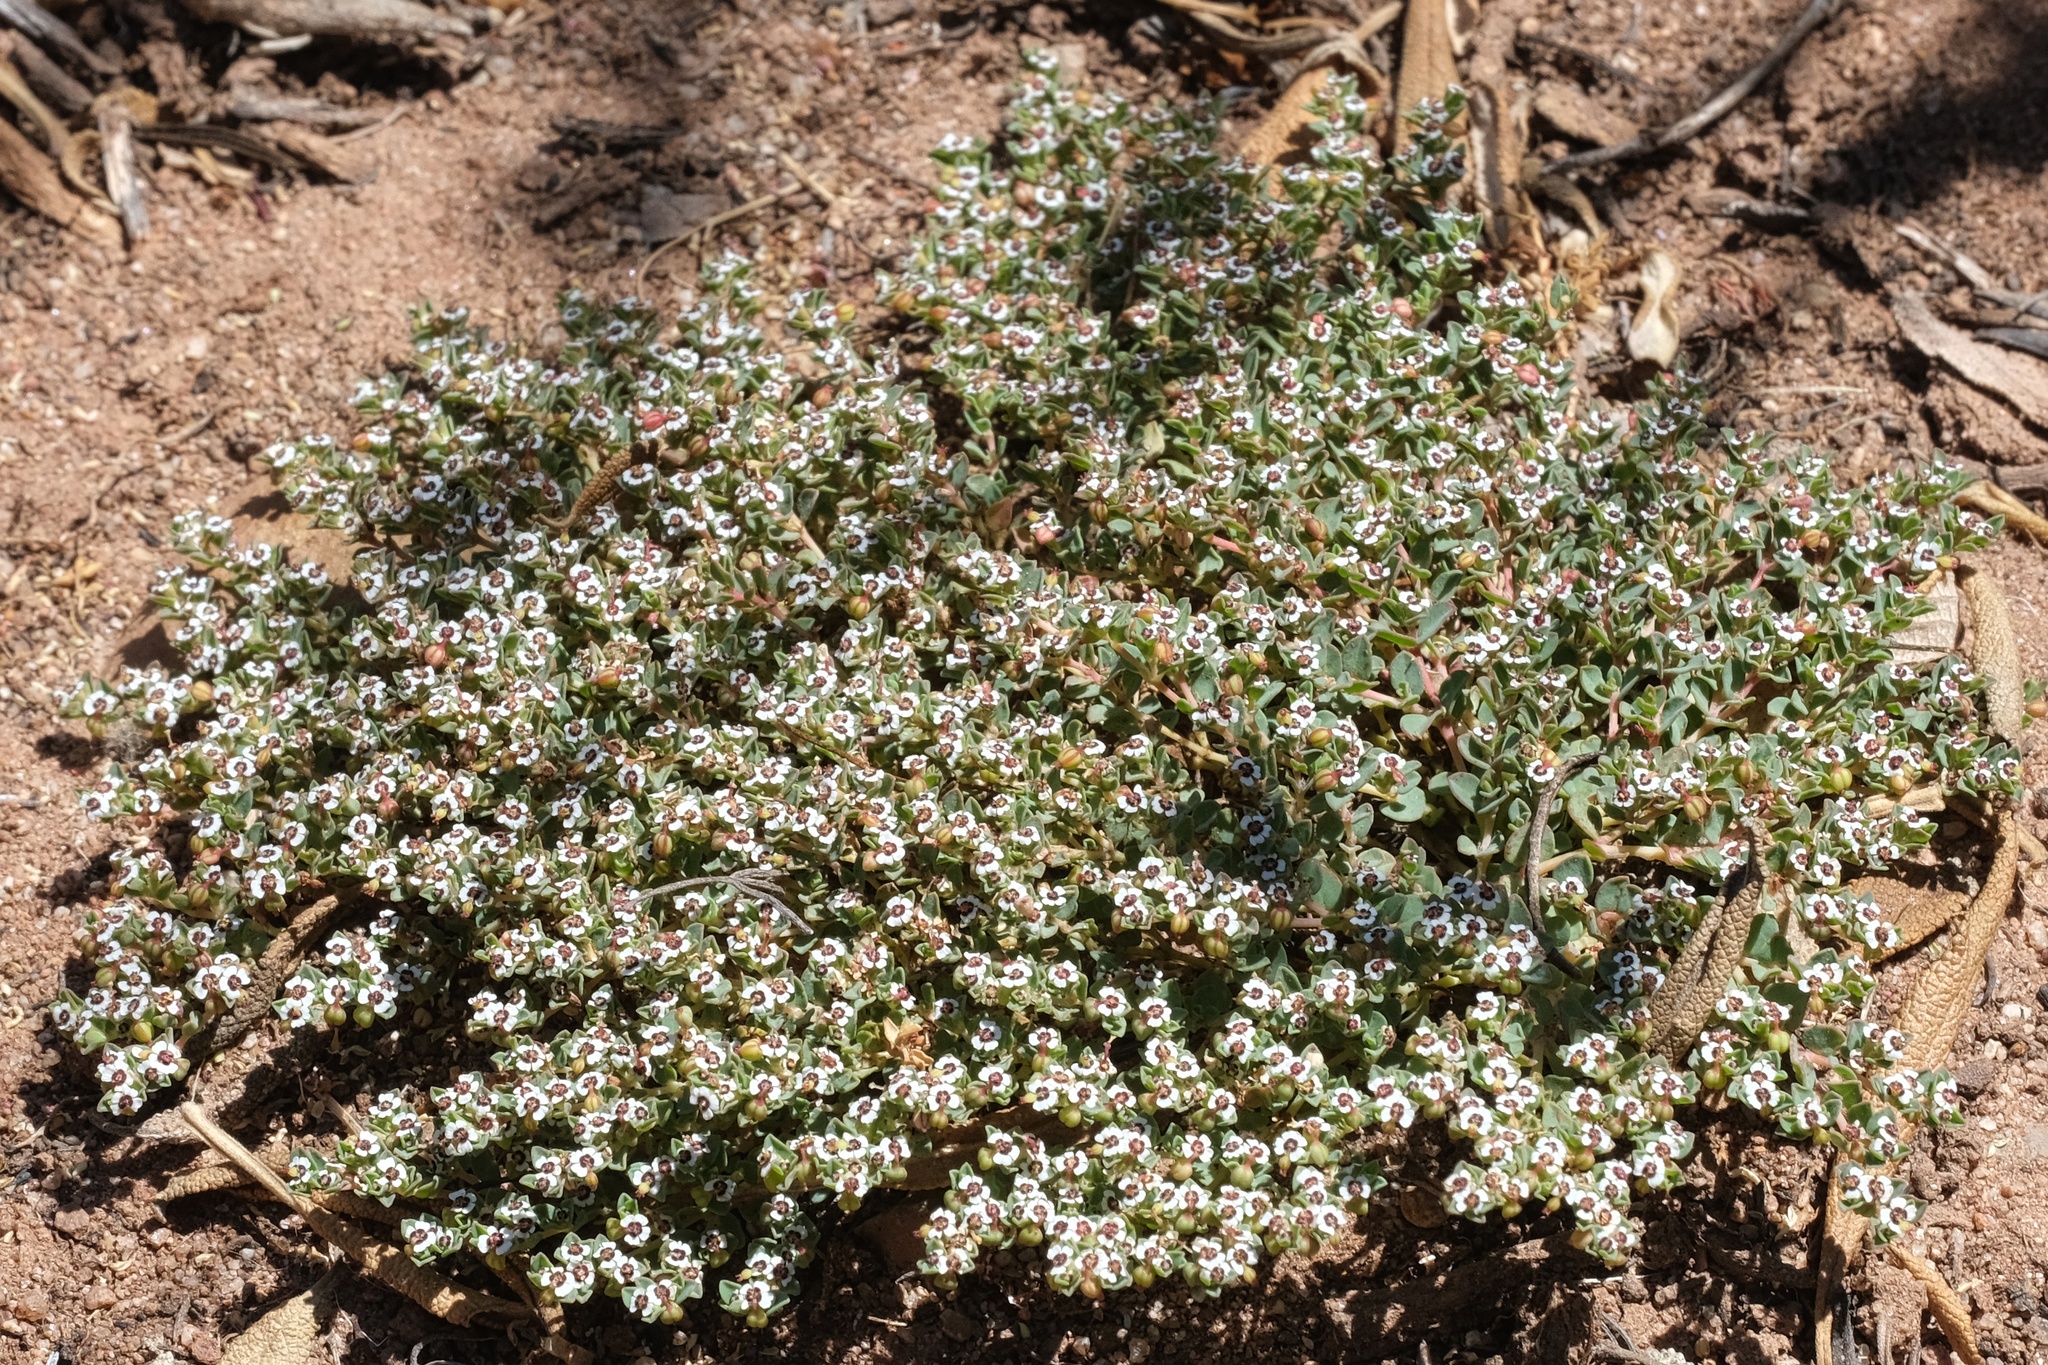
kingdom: Plantae
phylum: Tracheophyta
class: Magnoliopsida
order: Malpighiales
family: Euphorbiaceae
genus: Euphorbia
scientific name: Euphorbia polycarpa
